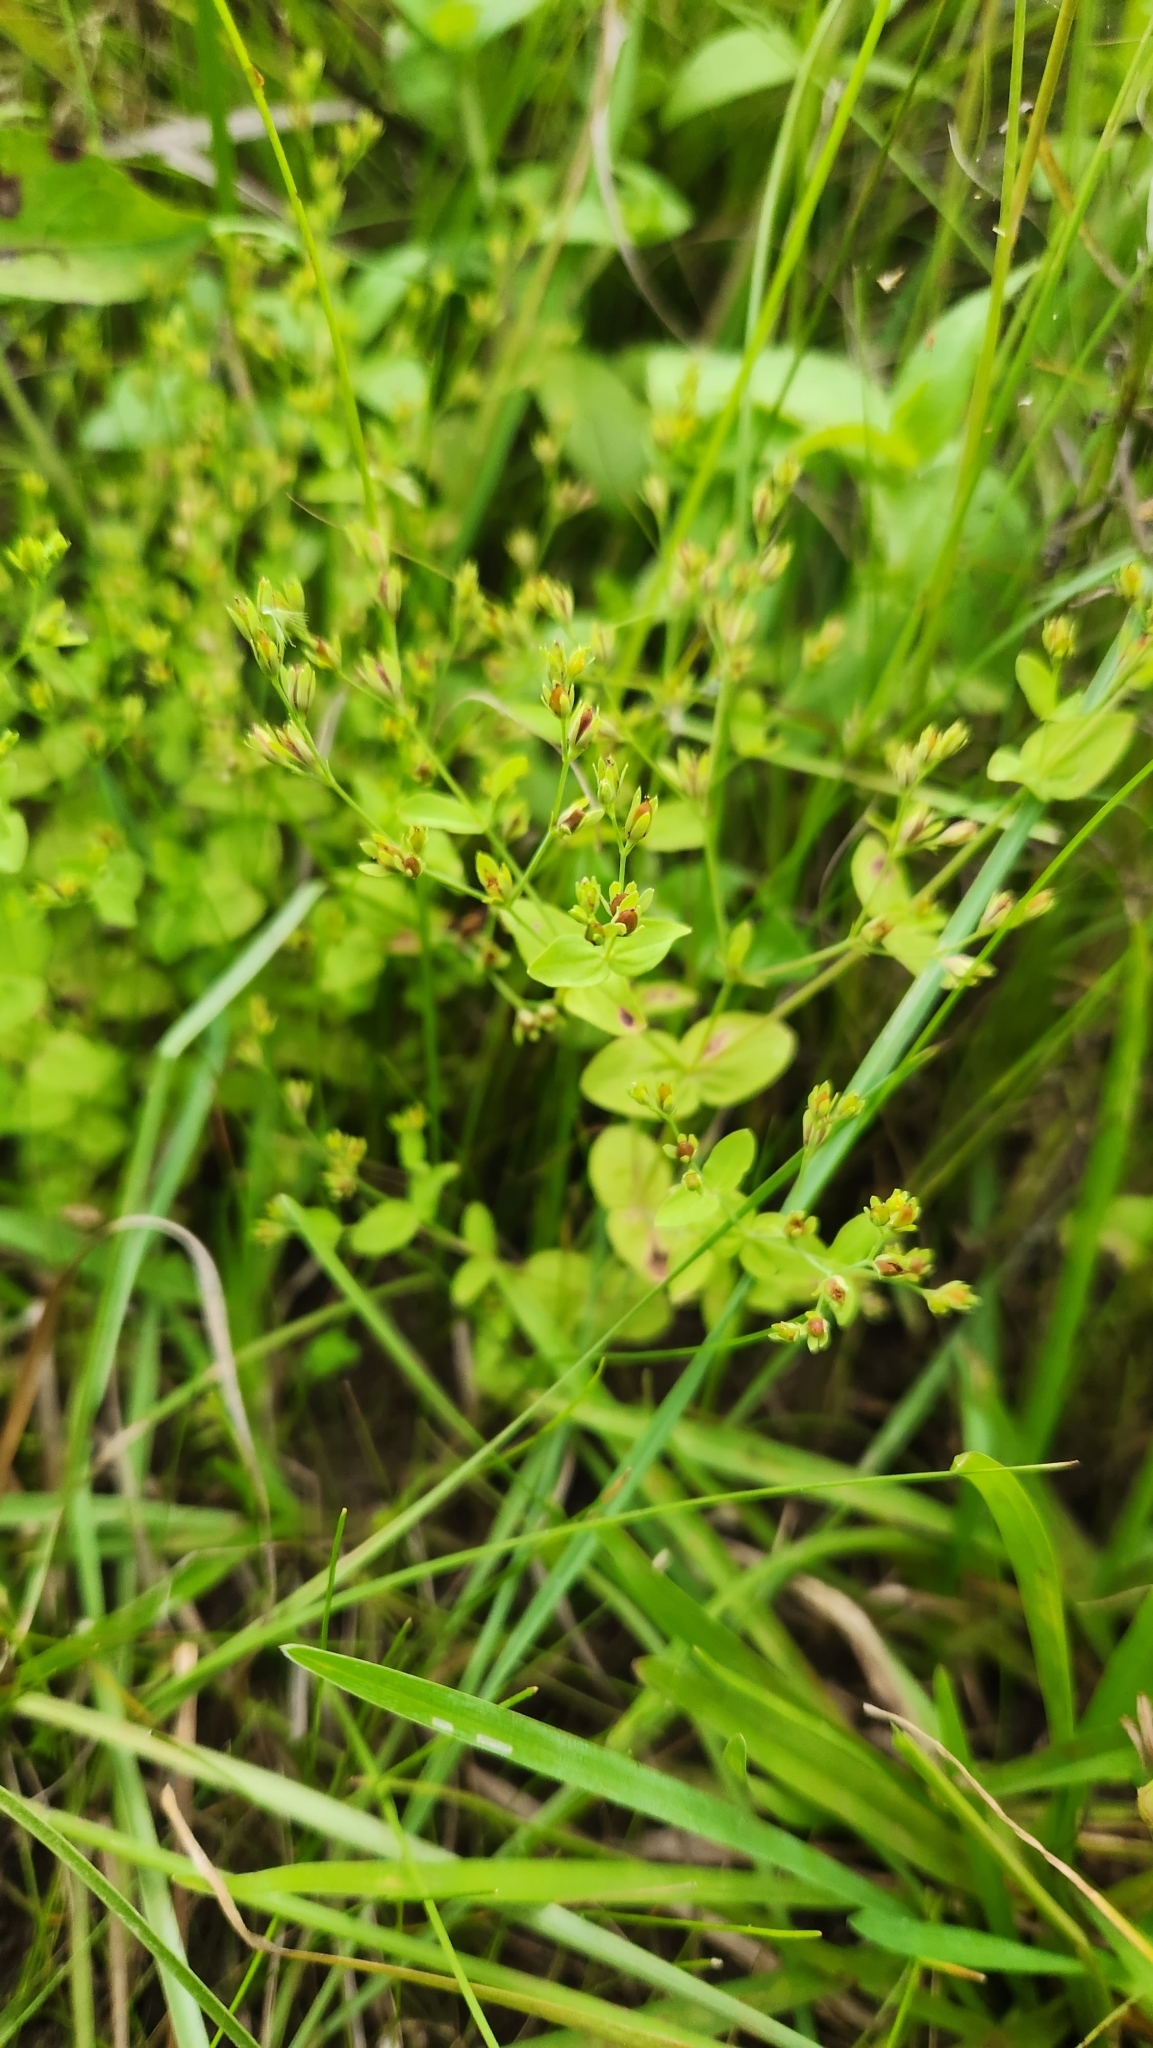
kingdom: Plantae
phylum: Tracheophyta
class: Magnoliopsida
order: Malpighiales
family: Hypericaceae
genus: Hypericum
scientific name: Hypericum mutilum
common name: Dwarf st. john's-wort
